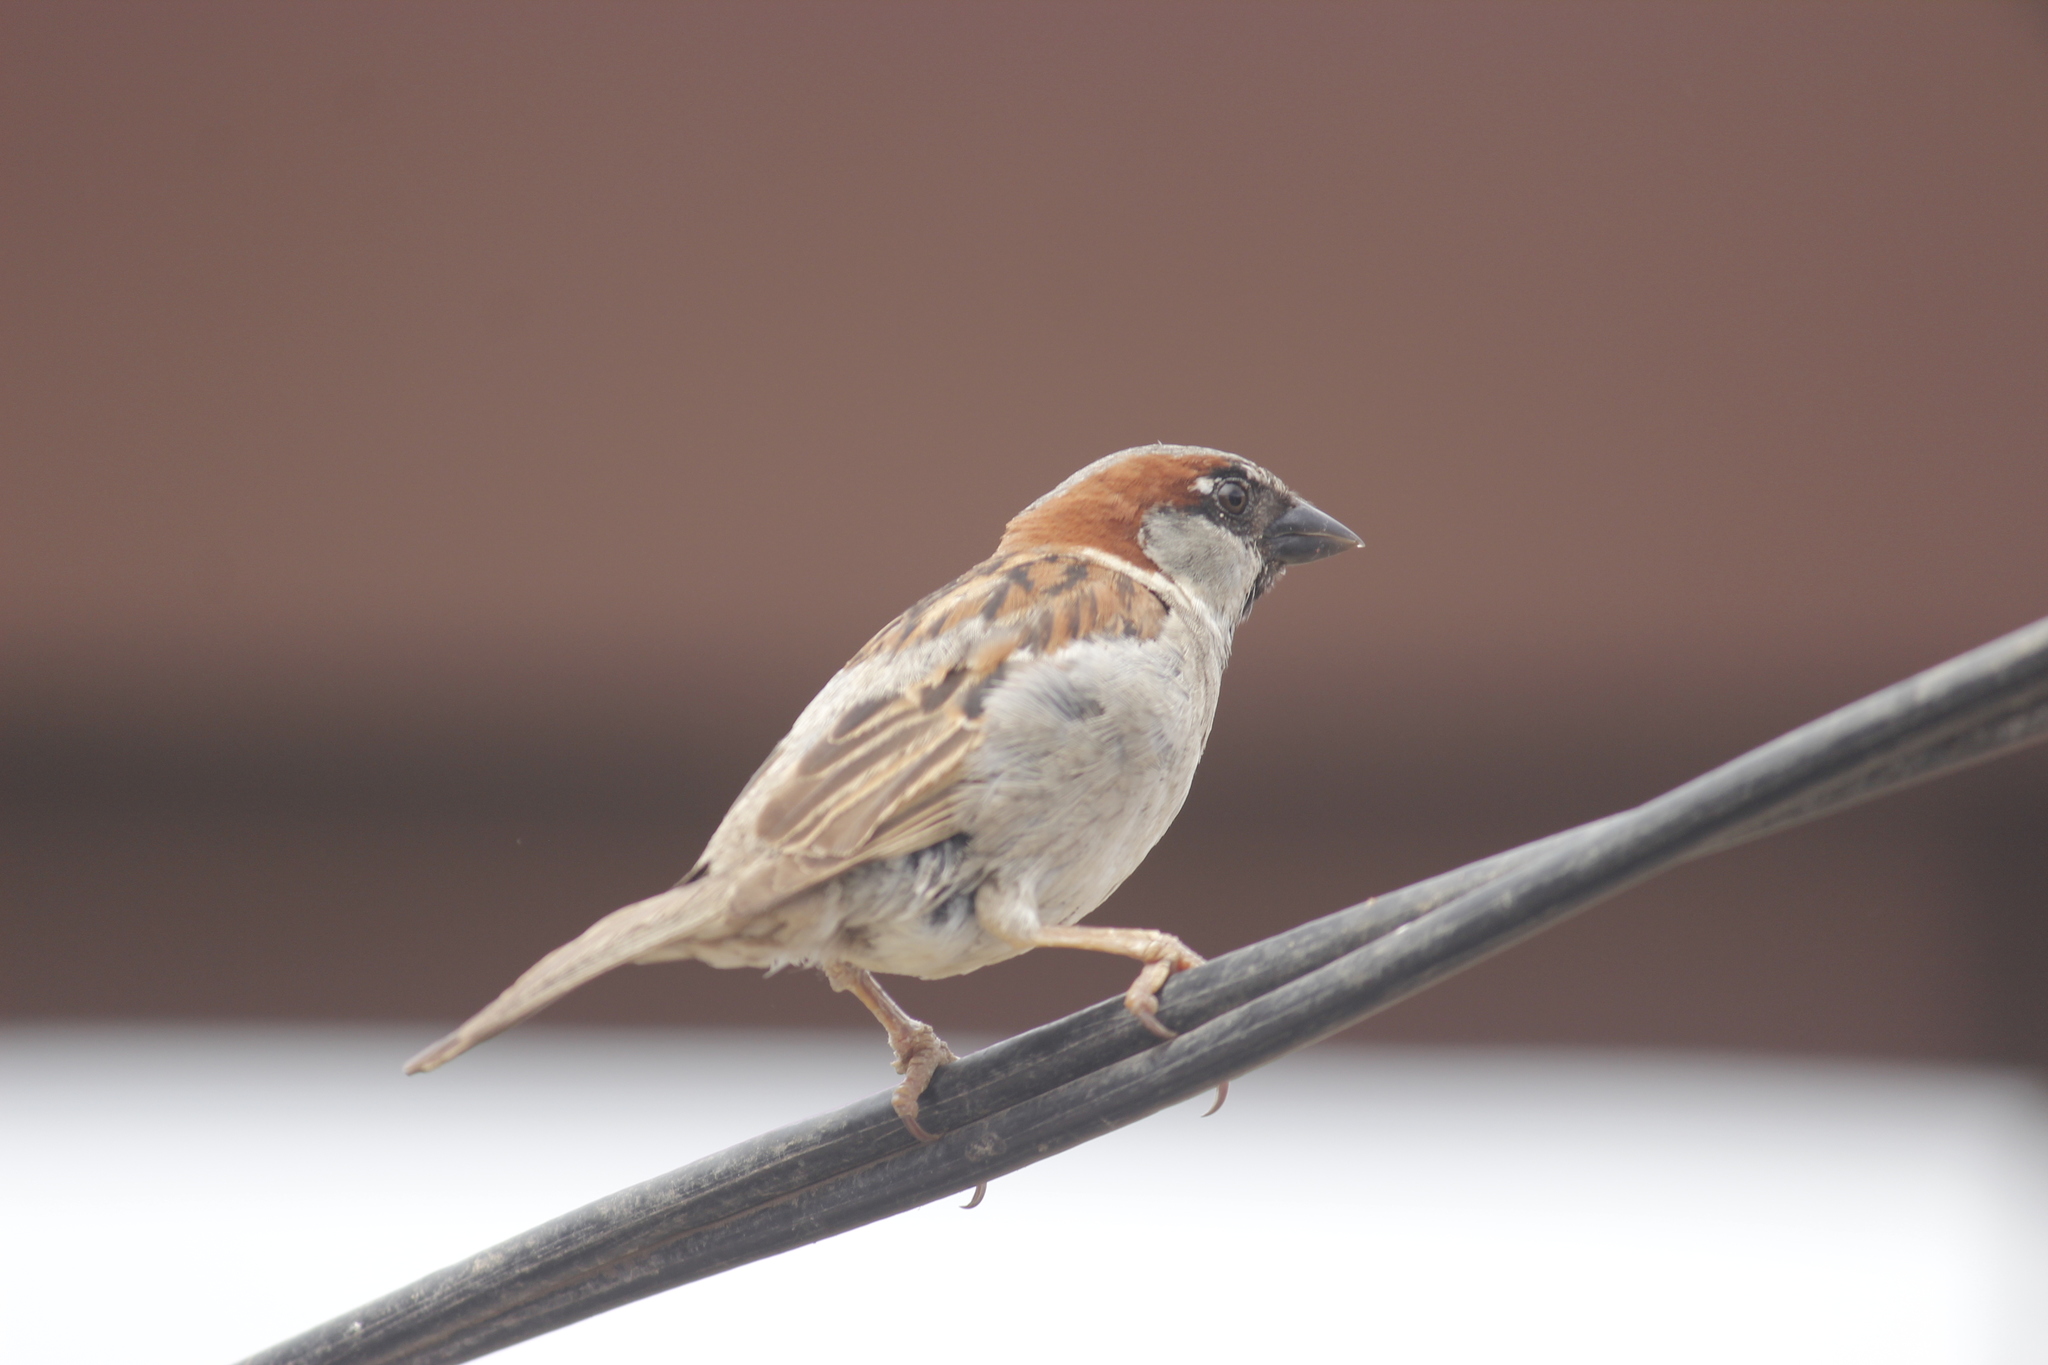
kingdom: Animalia
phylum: Chordata
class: Aves
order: Passeriformes
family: Passeridae
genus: Passer
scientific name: Passer domesticus
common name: House sparrow
